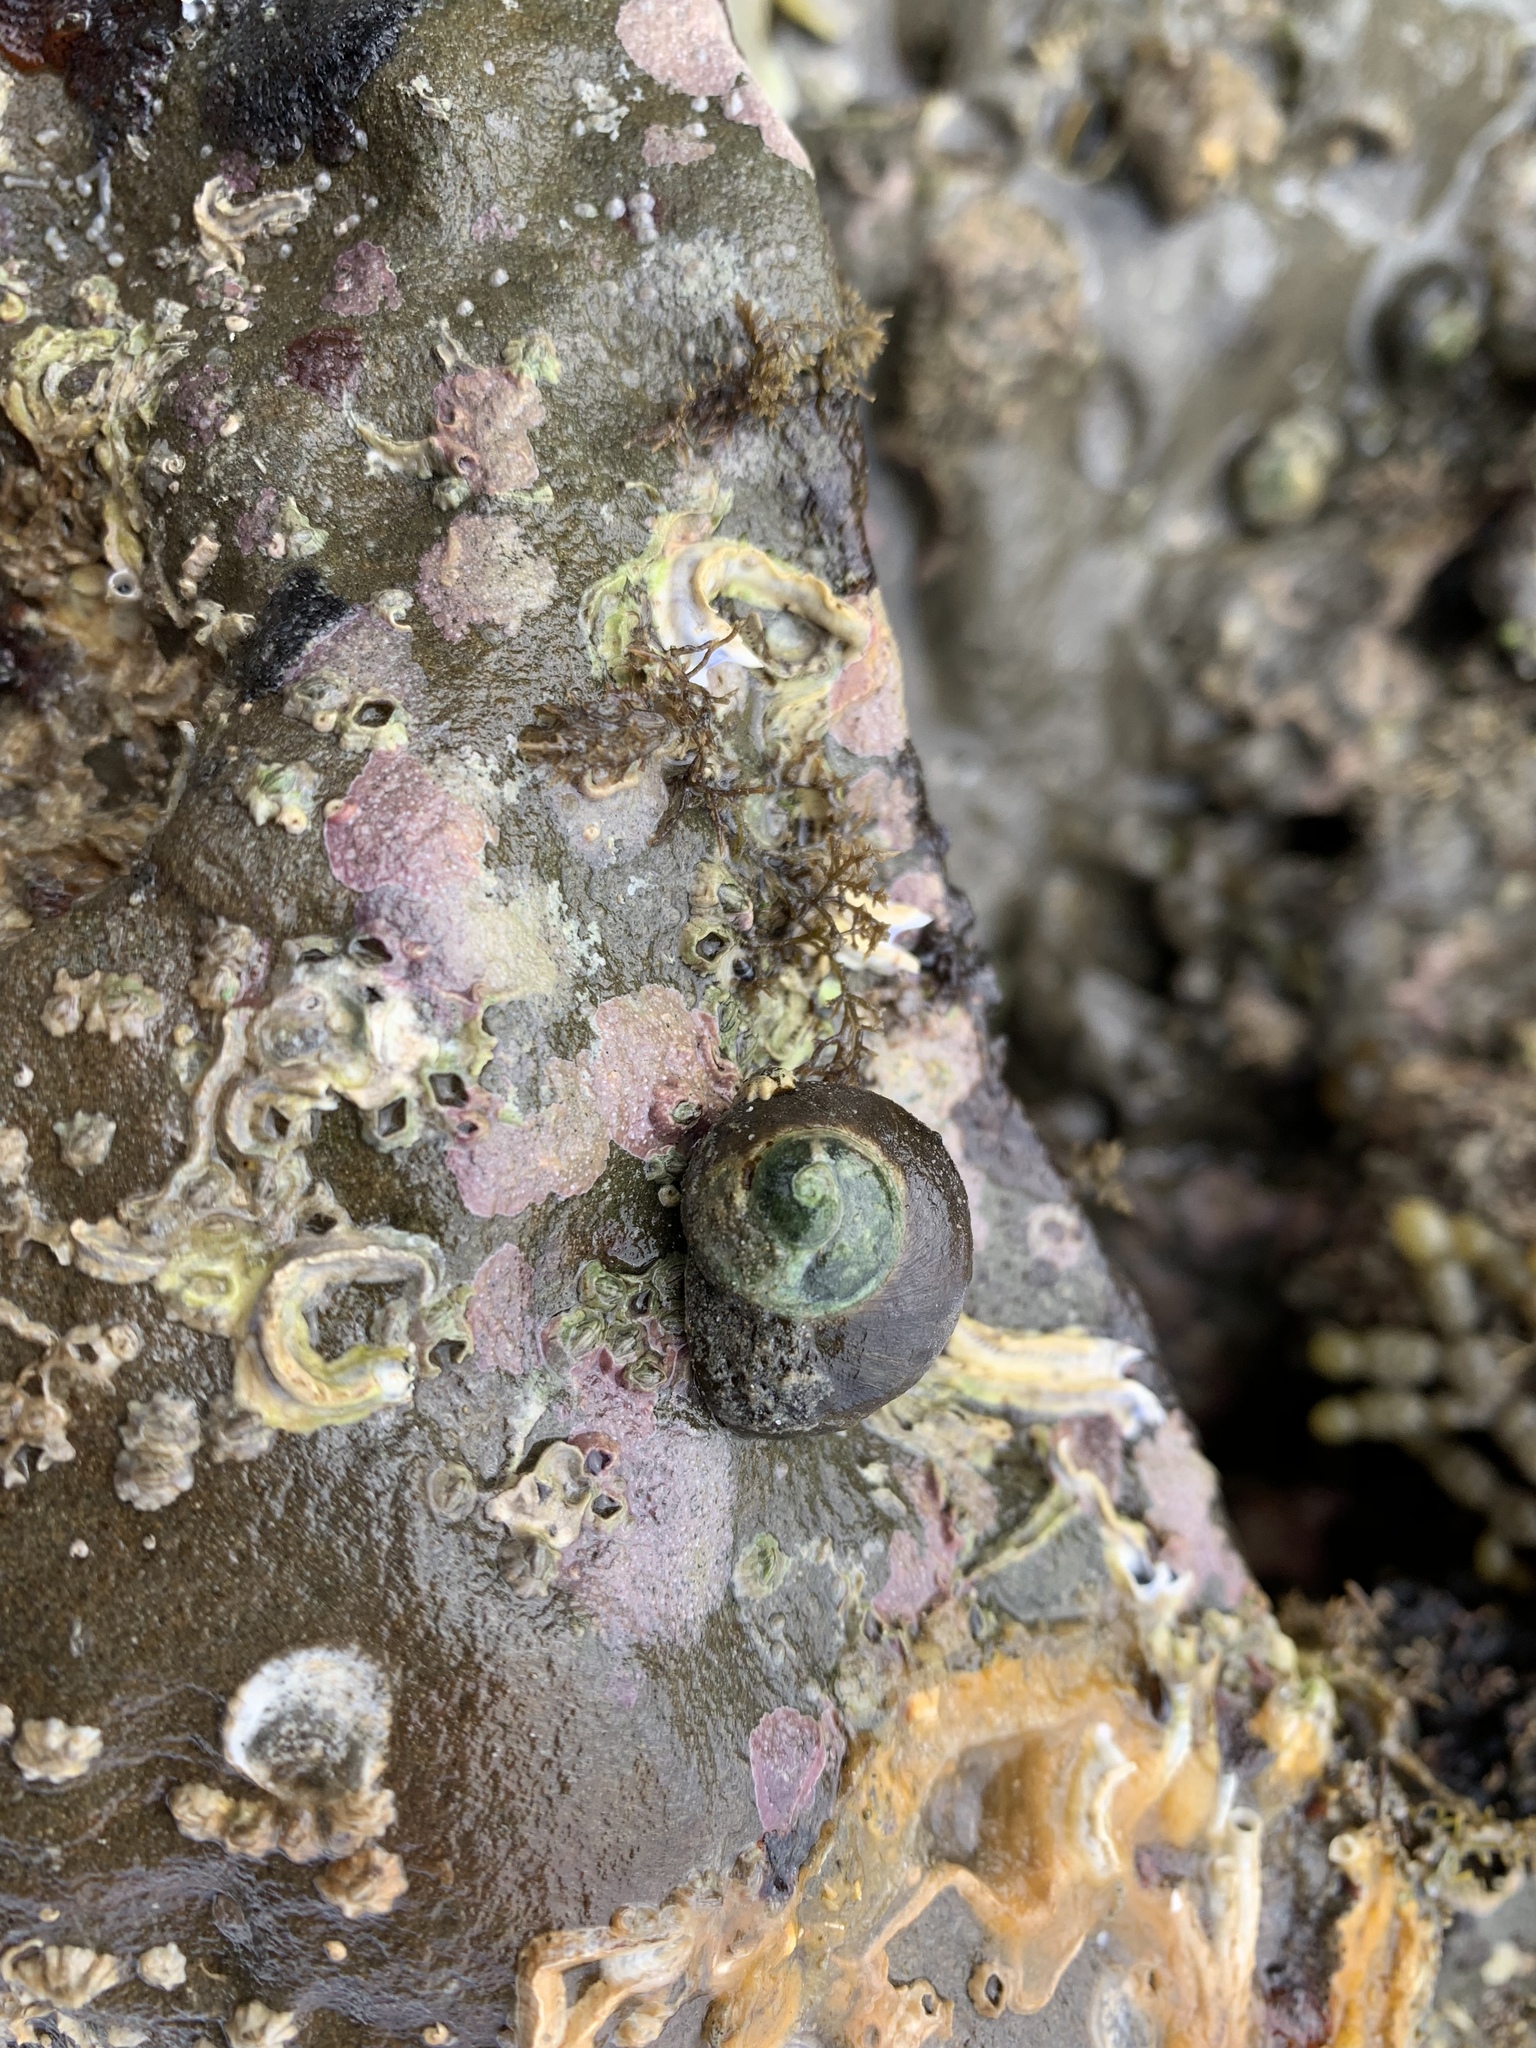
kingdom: Animalia
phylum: Mollusca
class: Gastropoda
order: Trochida
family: Turbinidae
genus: Lunella
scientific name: Lunella smaragda
